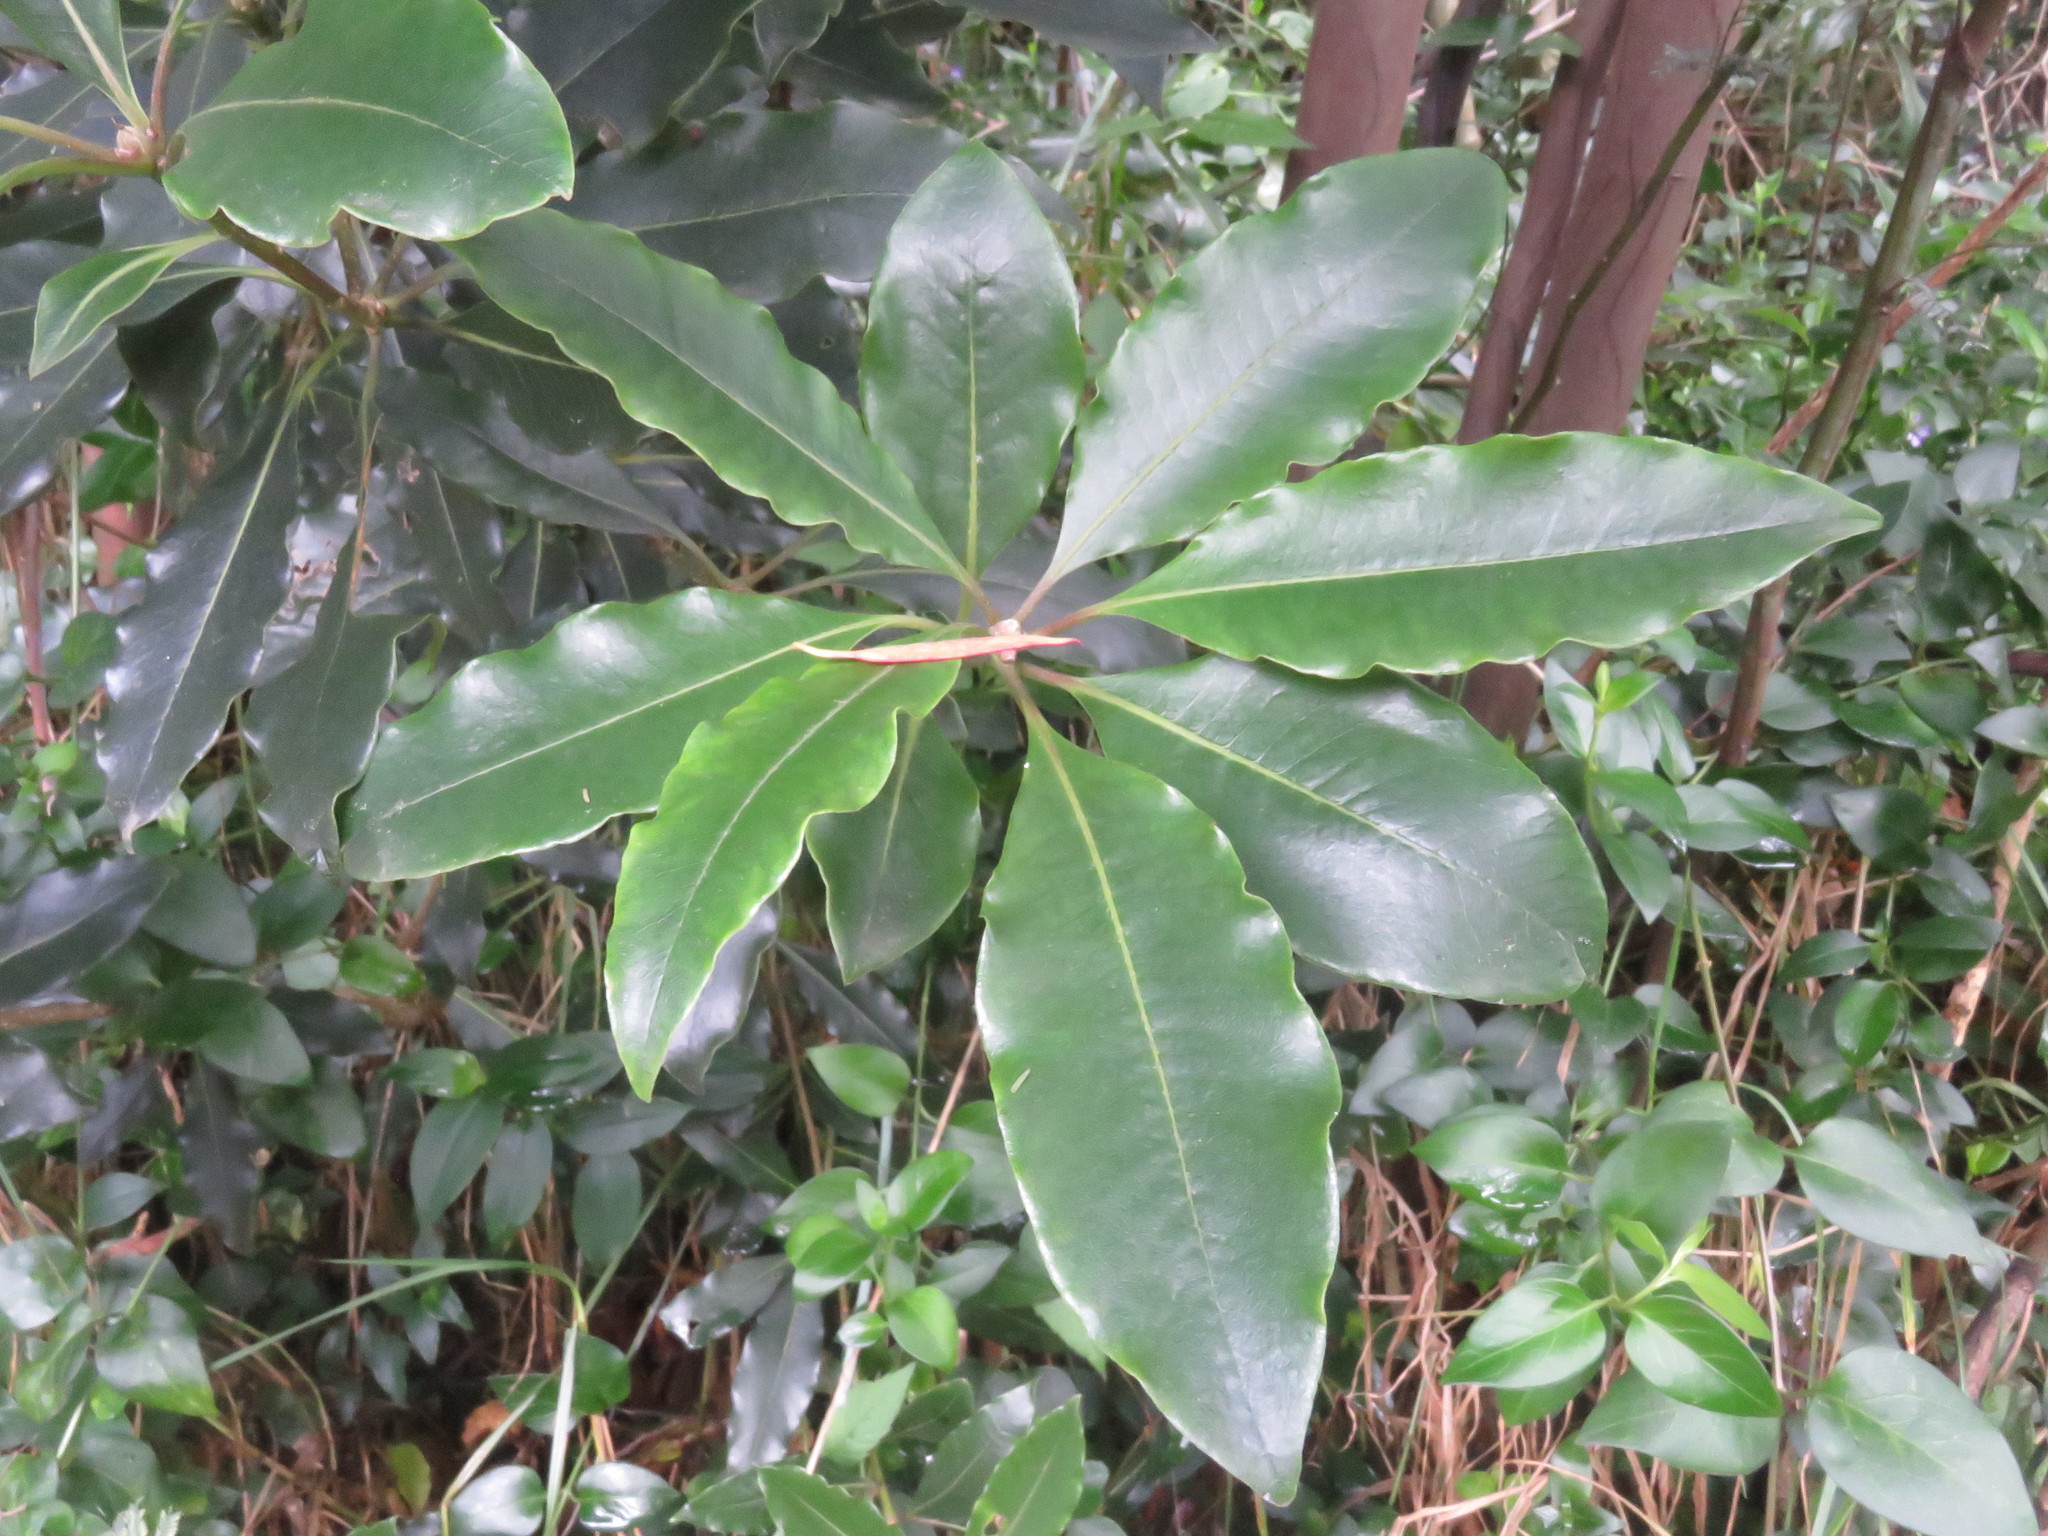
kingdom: Plantae
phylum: Tracheophyta
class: Magnoliopsida
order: Apiales
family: Pittosporaceae
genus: Pittosporum
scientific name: Pittosporum undulatum
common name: Australian cheesewood
